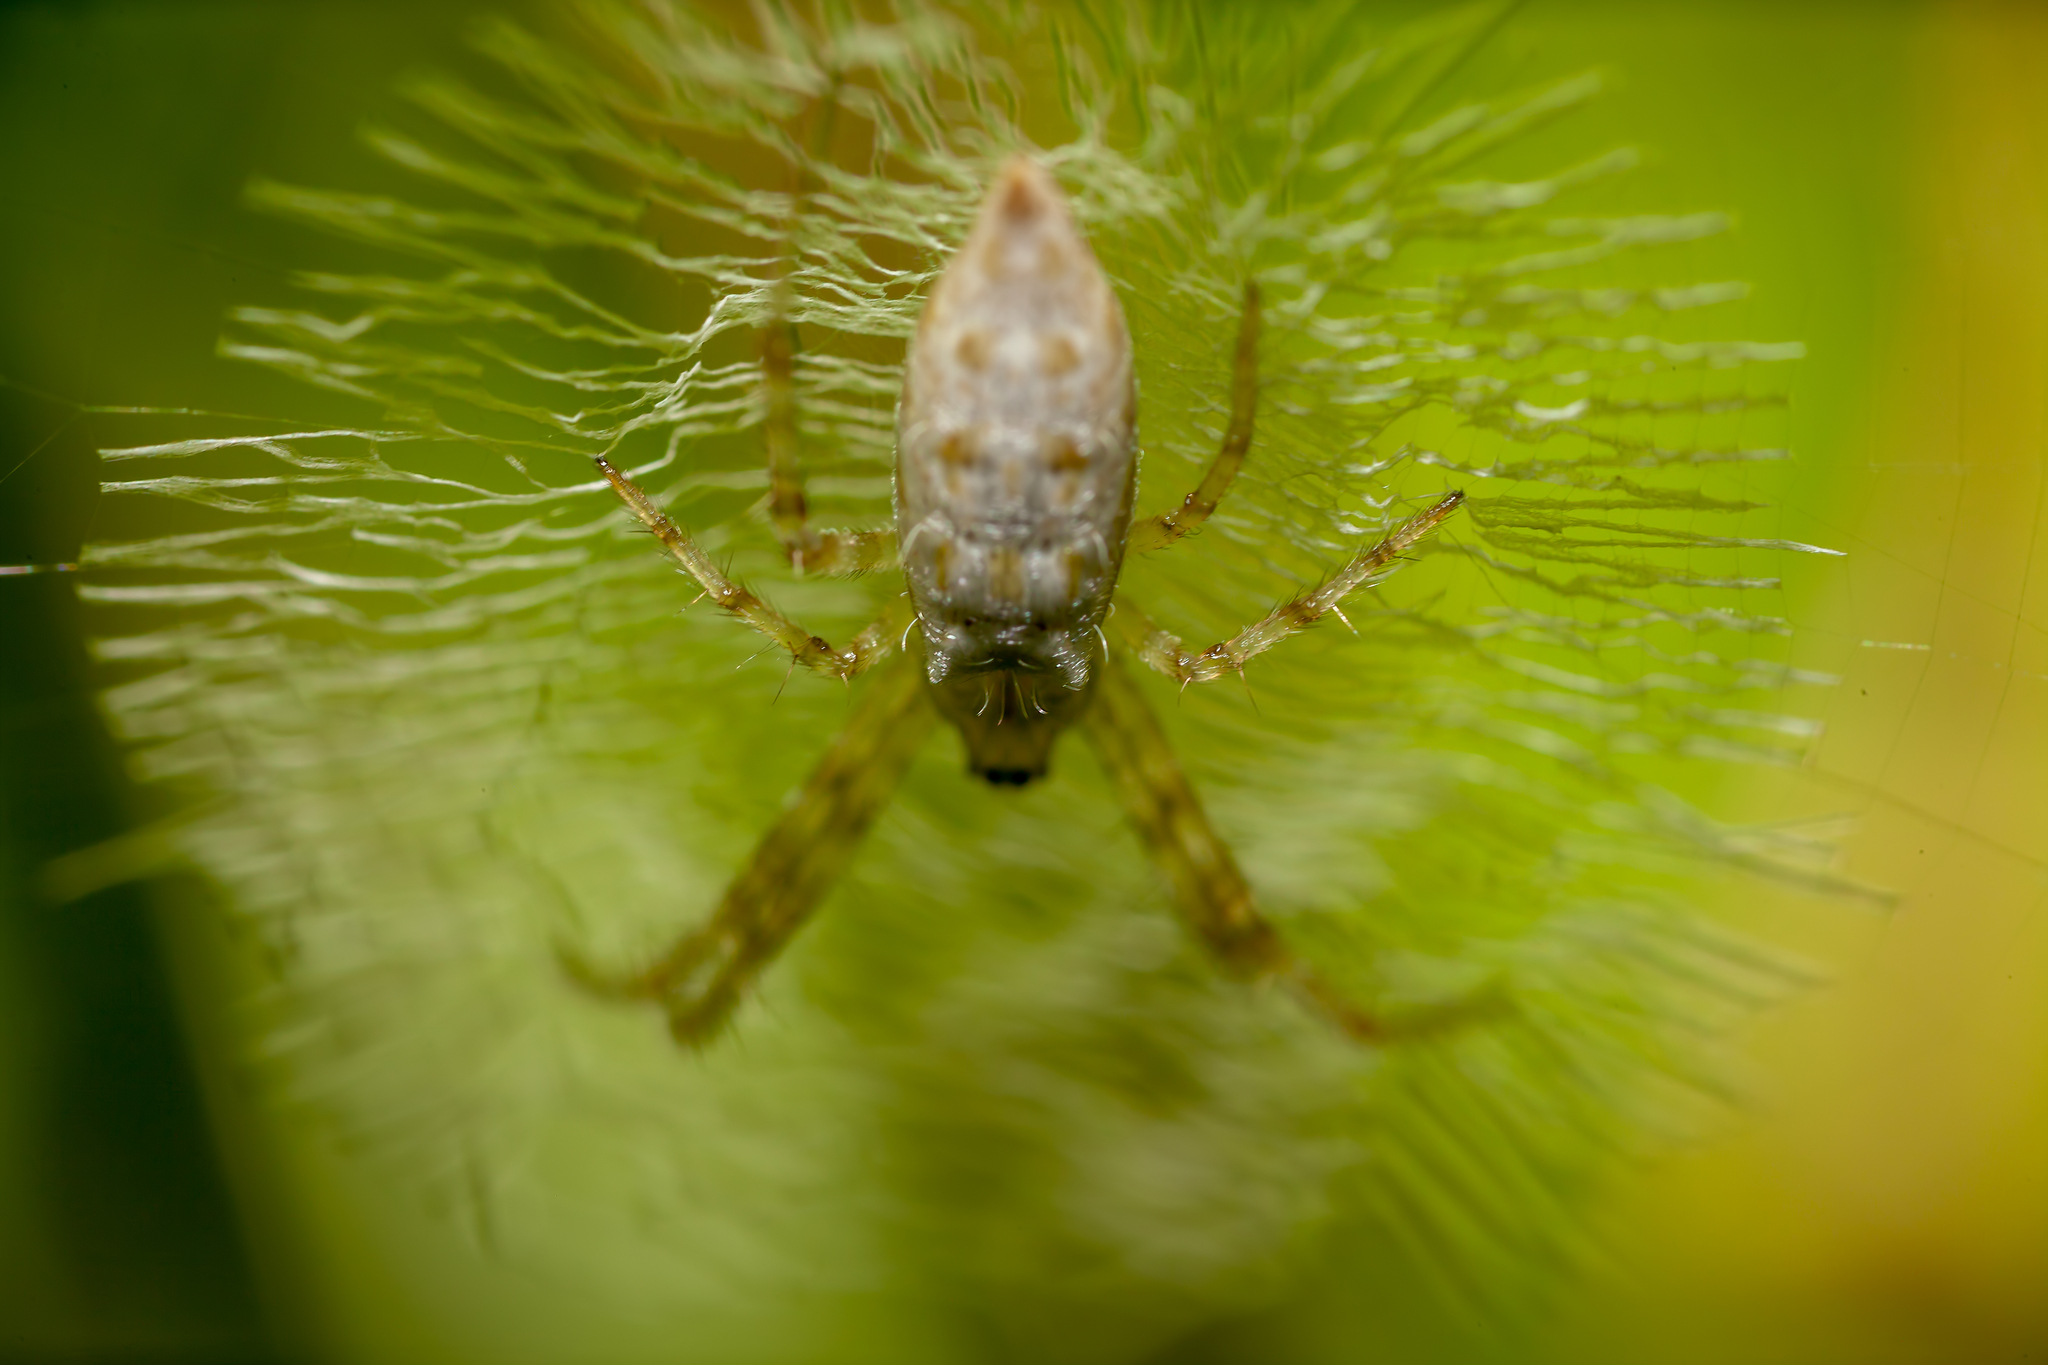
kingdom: Animalia
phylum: Arthropoda
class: Arachnida
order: Araneae
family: Araneidae
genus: Argiope
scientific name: Argiope aurantia
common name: Orb weavers
